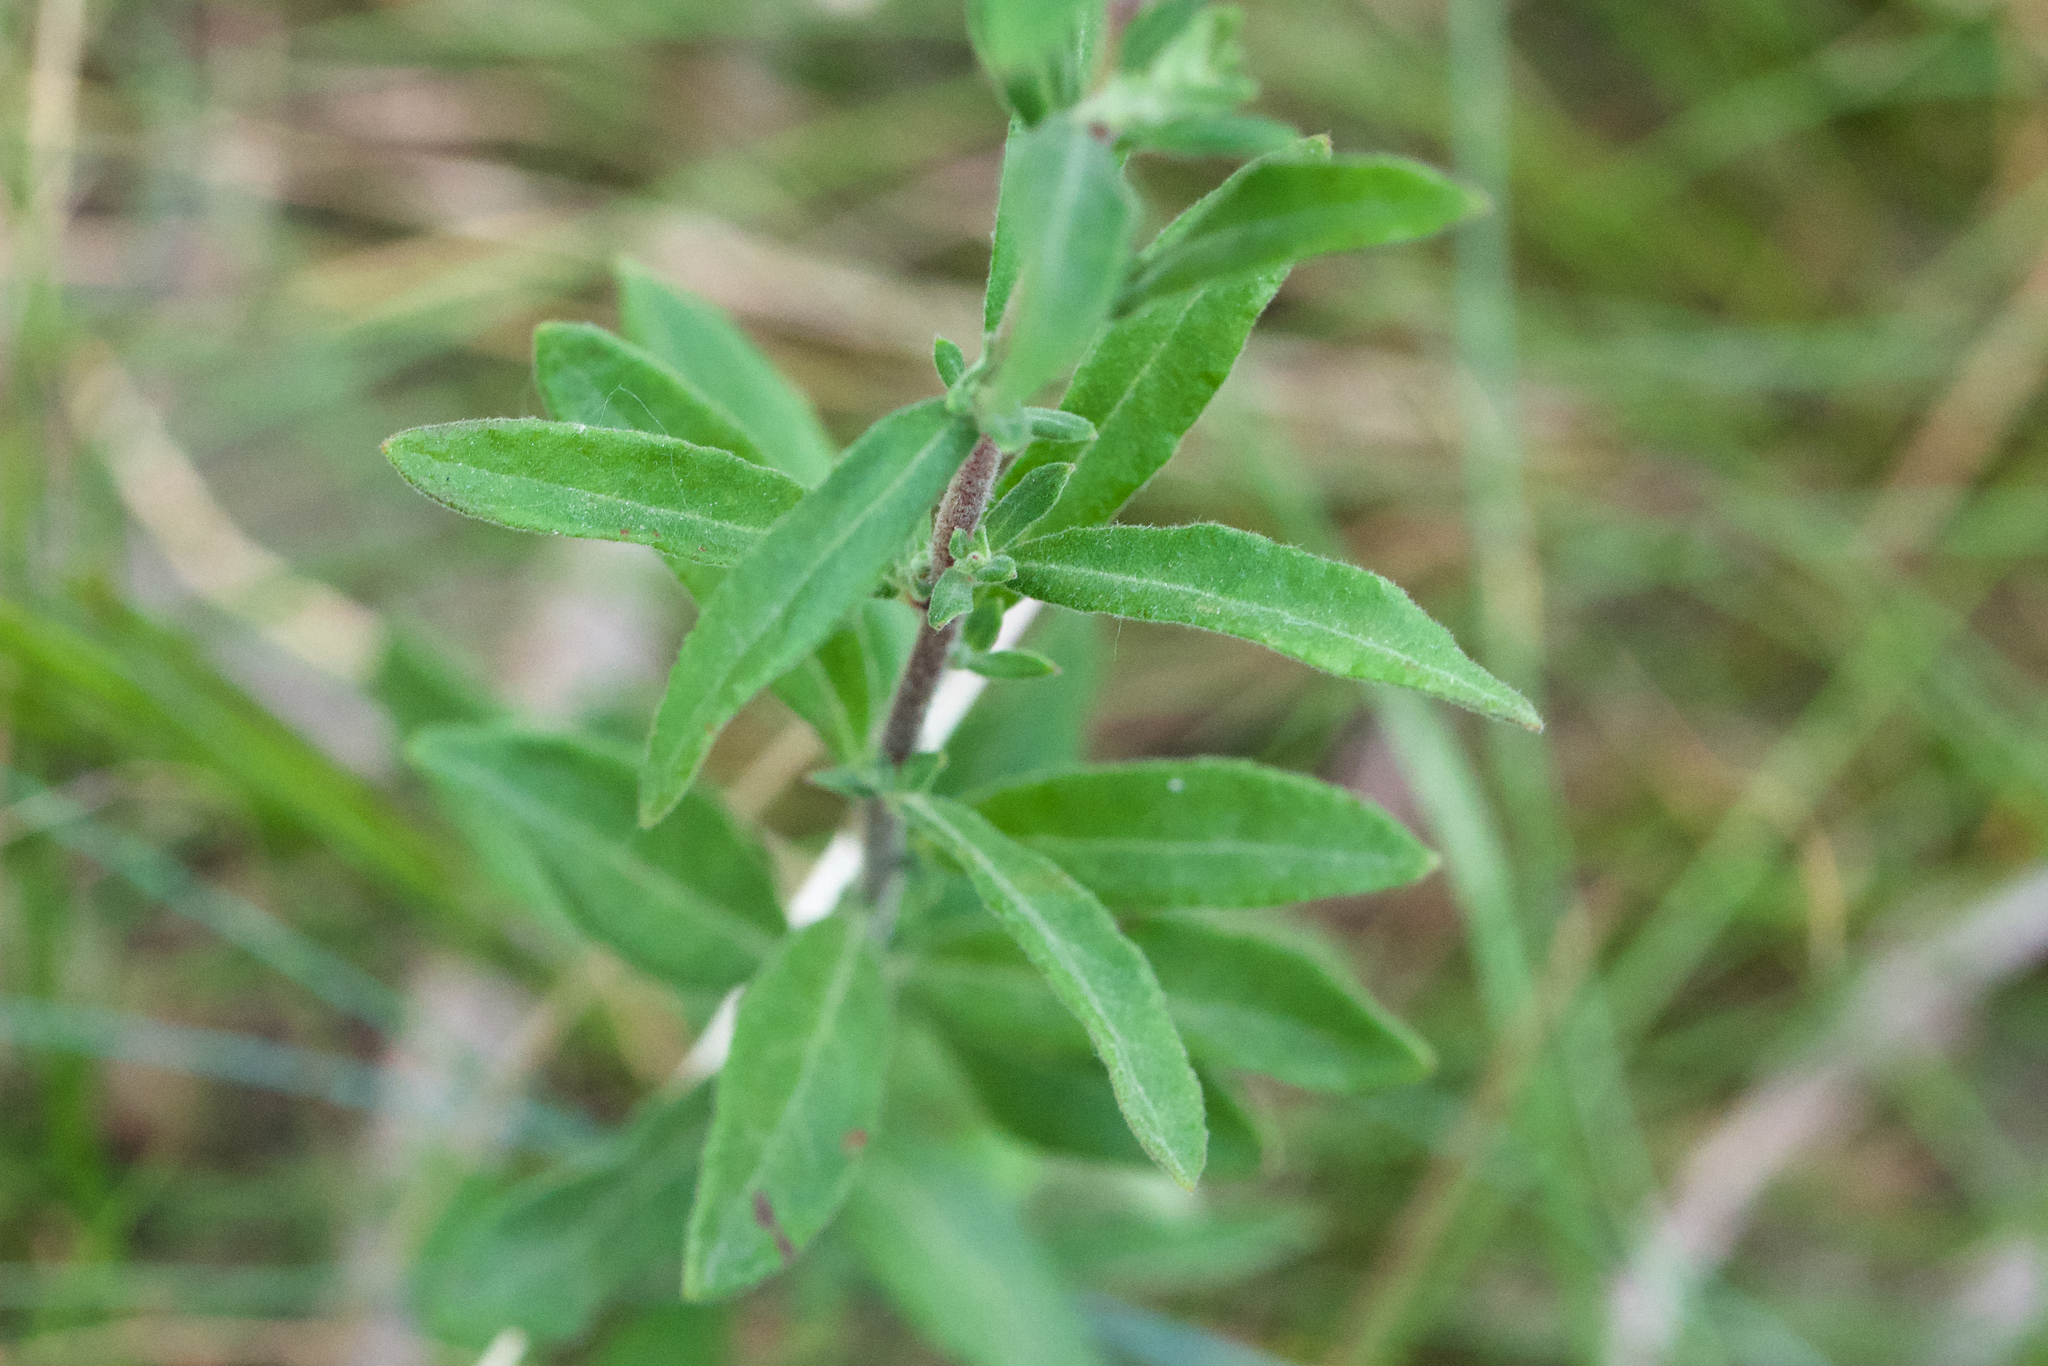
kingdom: Plantae
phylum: Tracheophyta
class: Magnoliopsida
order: Malvales
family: Cistaceae
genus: Crocanthemum
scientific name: Crocanthemum bicknellii
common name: Hoary frostweed
